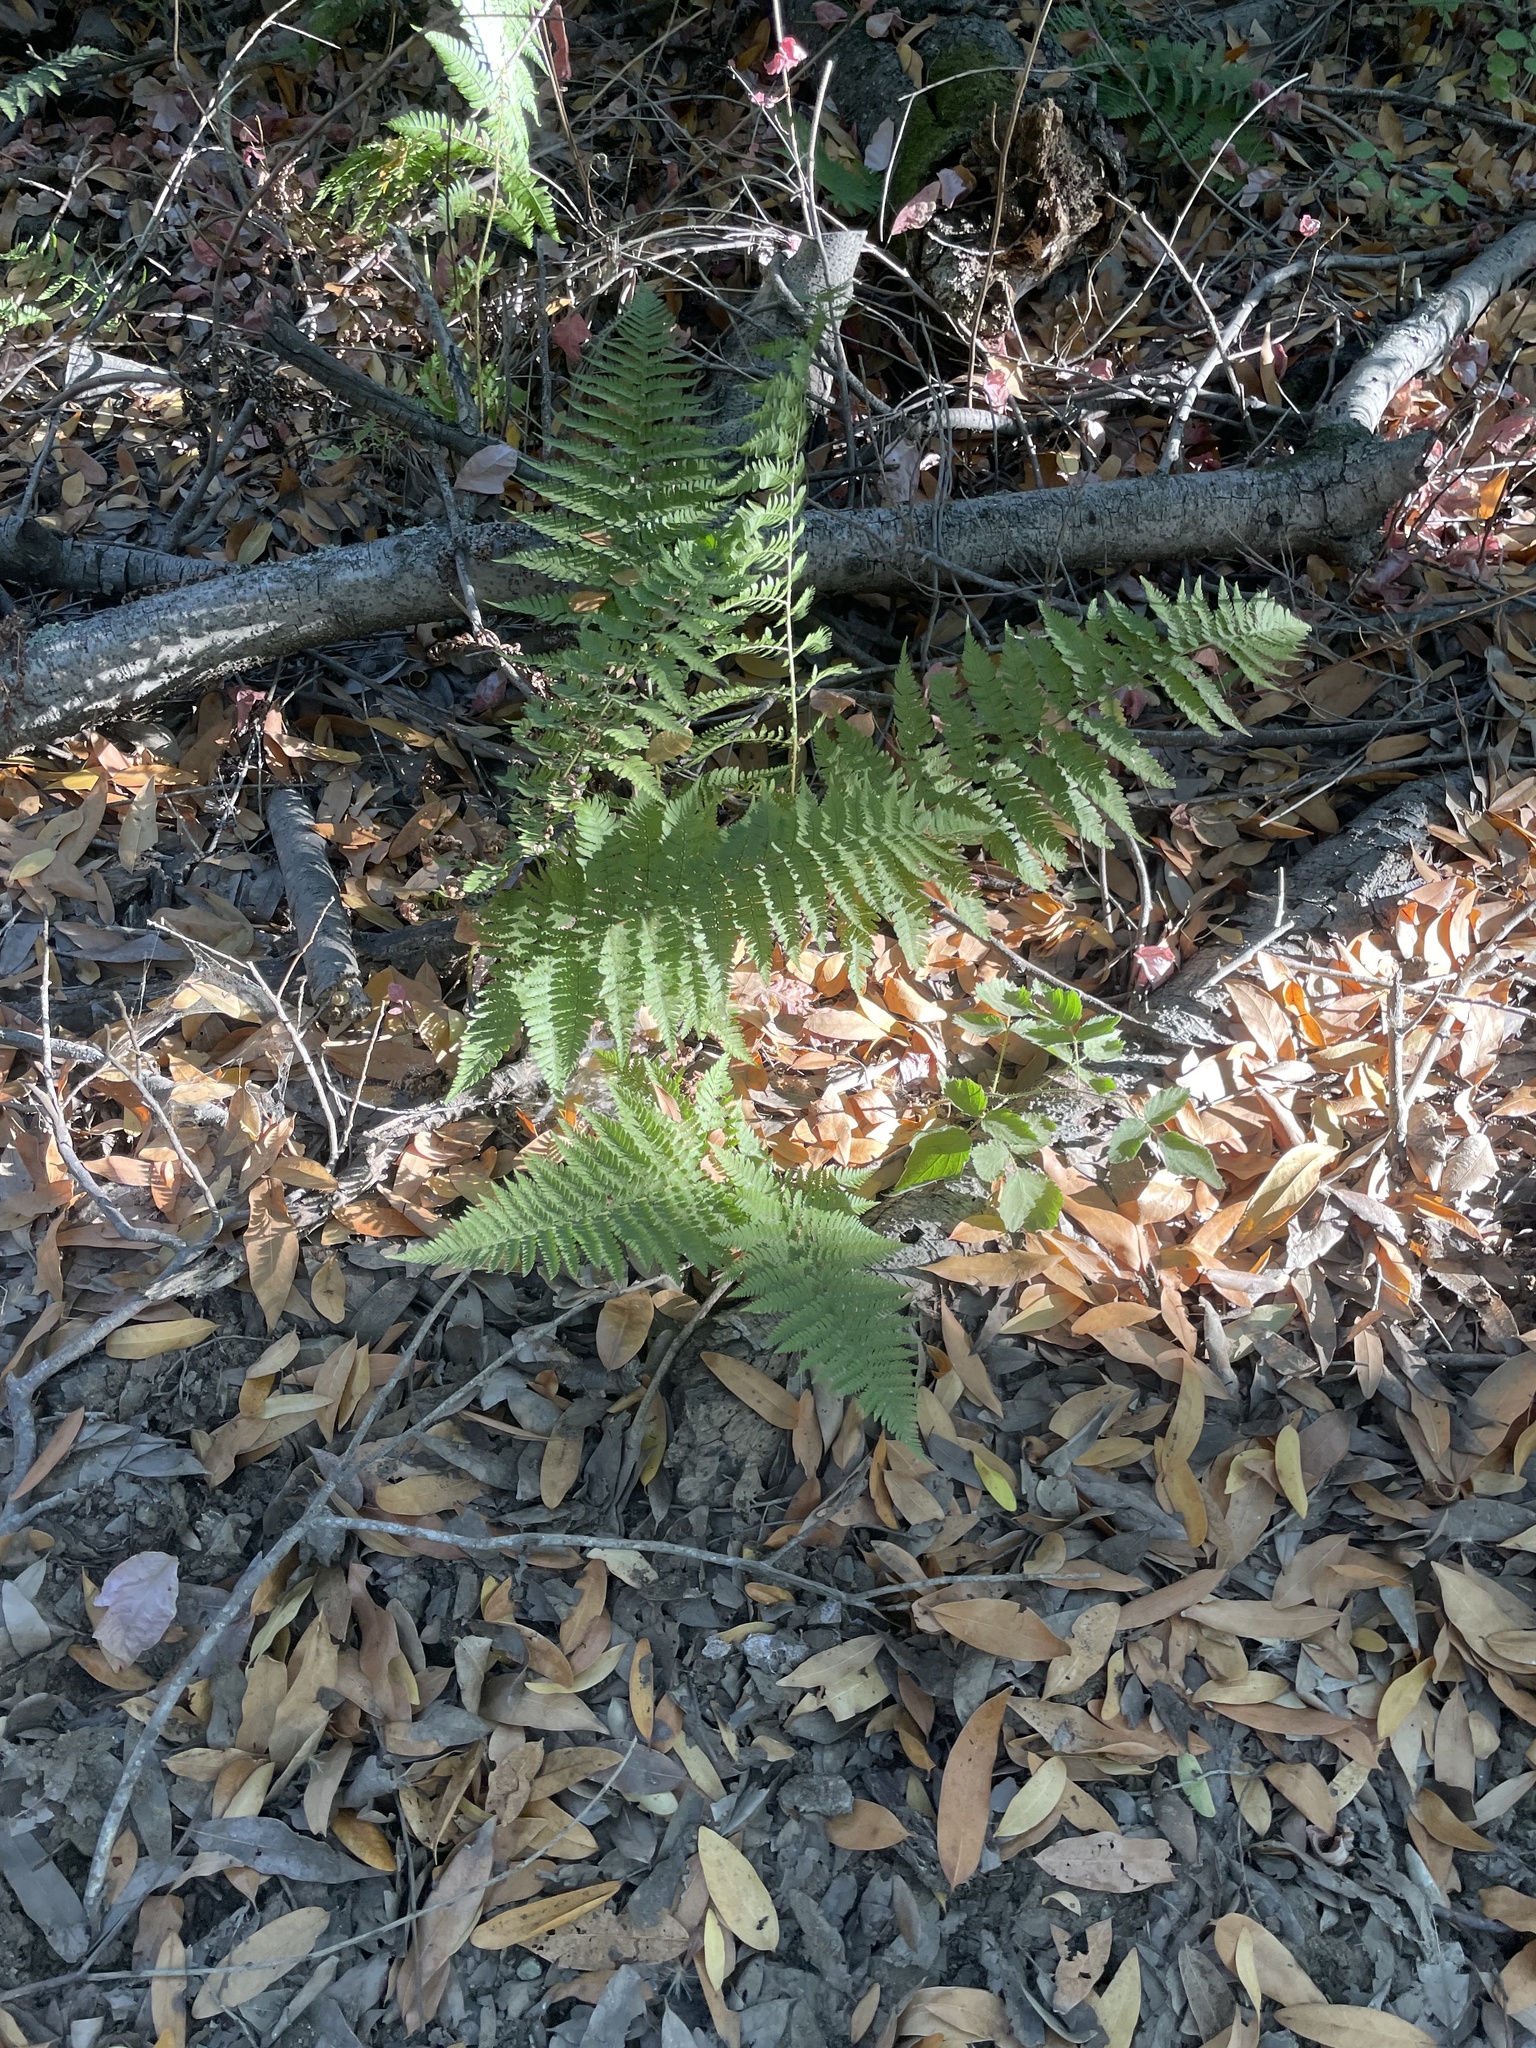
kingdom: Plantae
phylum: Tracheophyta
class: Polypodiopsida
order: Polypodiales
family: Dryopteridaceae
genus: Dryopteris
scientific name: Dryopteris arguta
